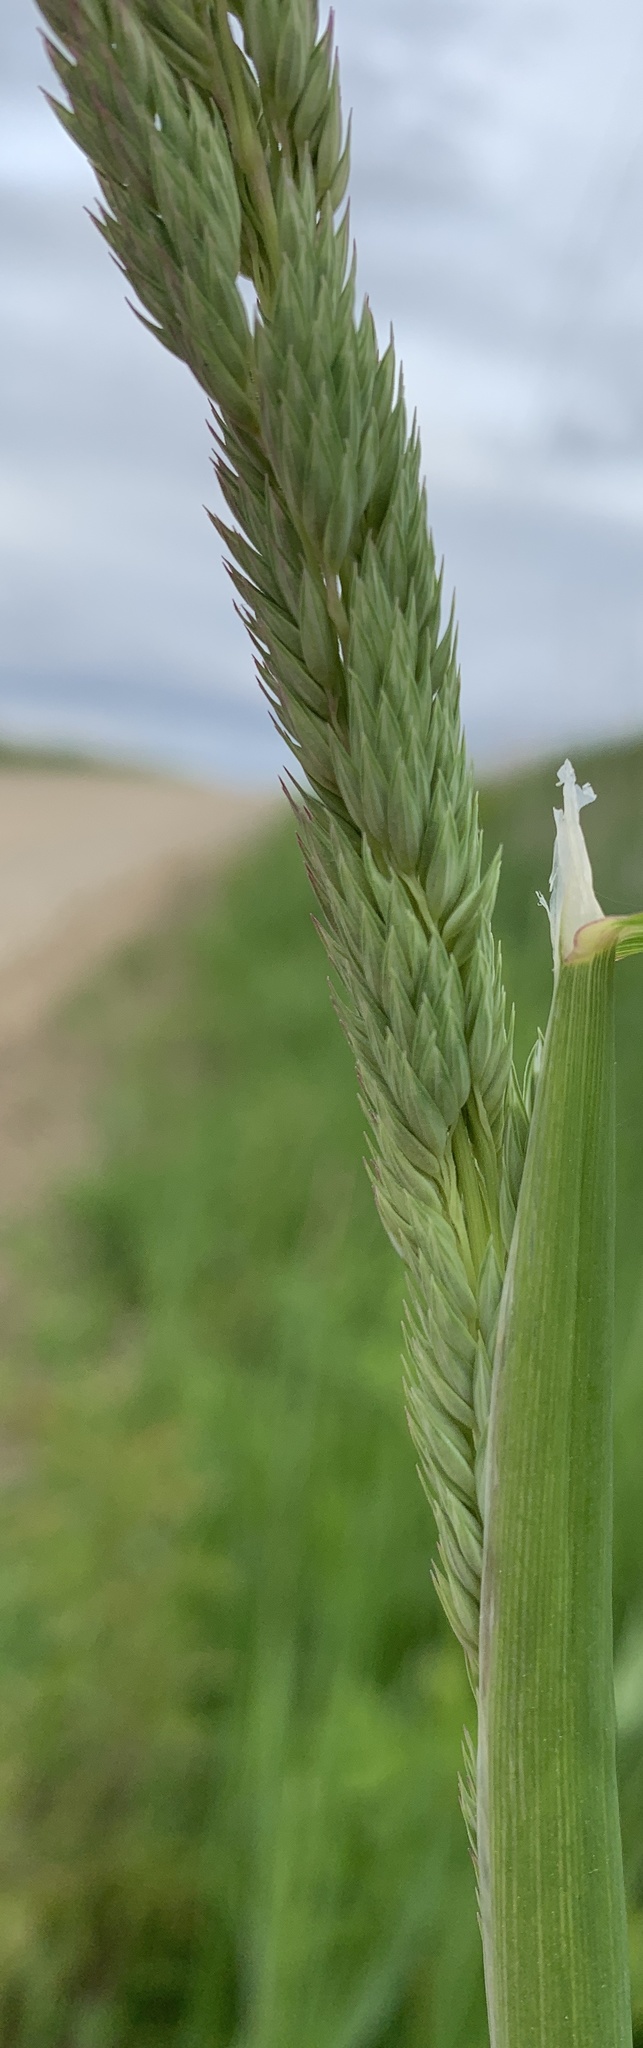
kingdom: Plantae
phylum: Tracheophyta
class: Liliopsida
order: Poales
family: Poaceae
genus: Phalaris
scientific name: Phalaris arundinacea
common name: Reed canary-grass
